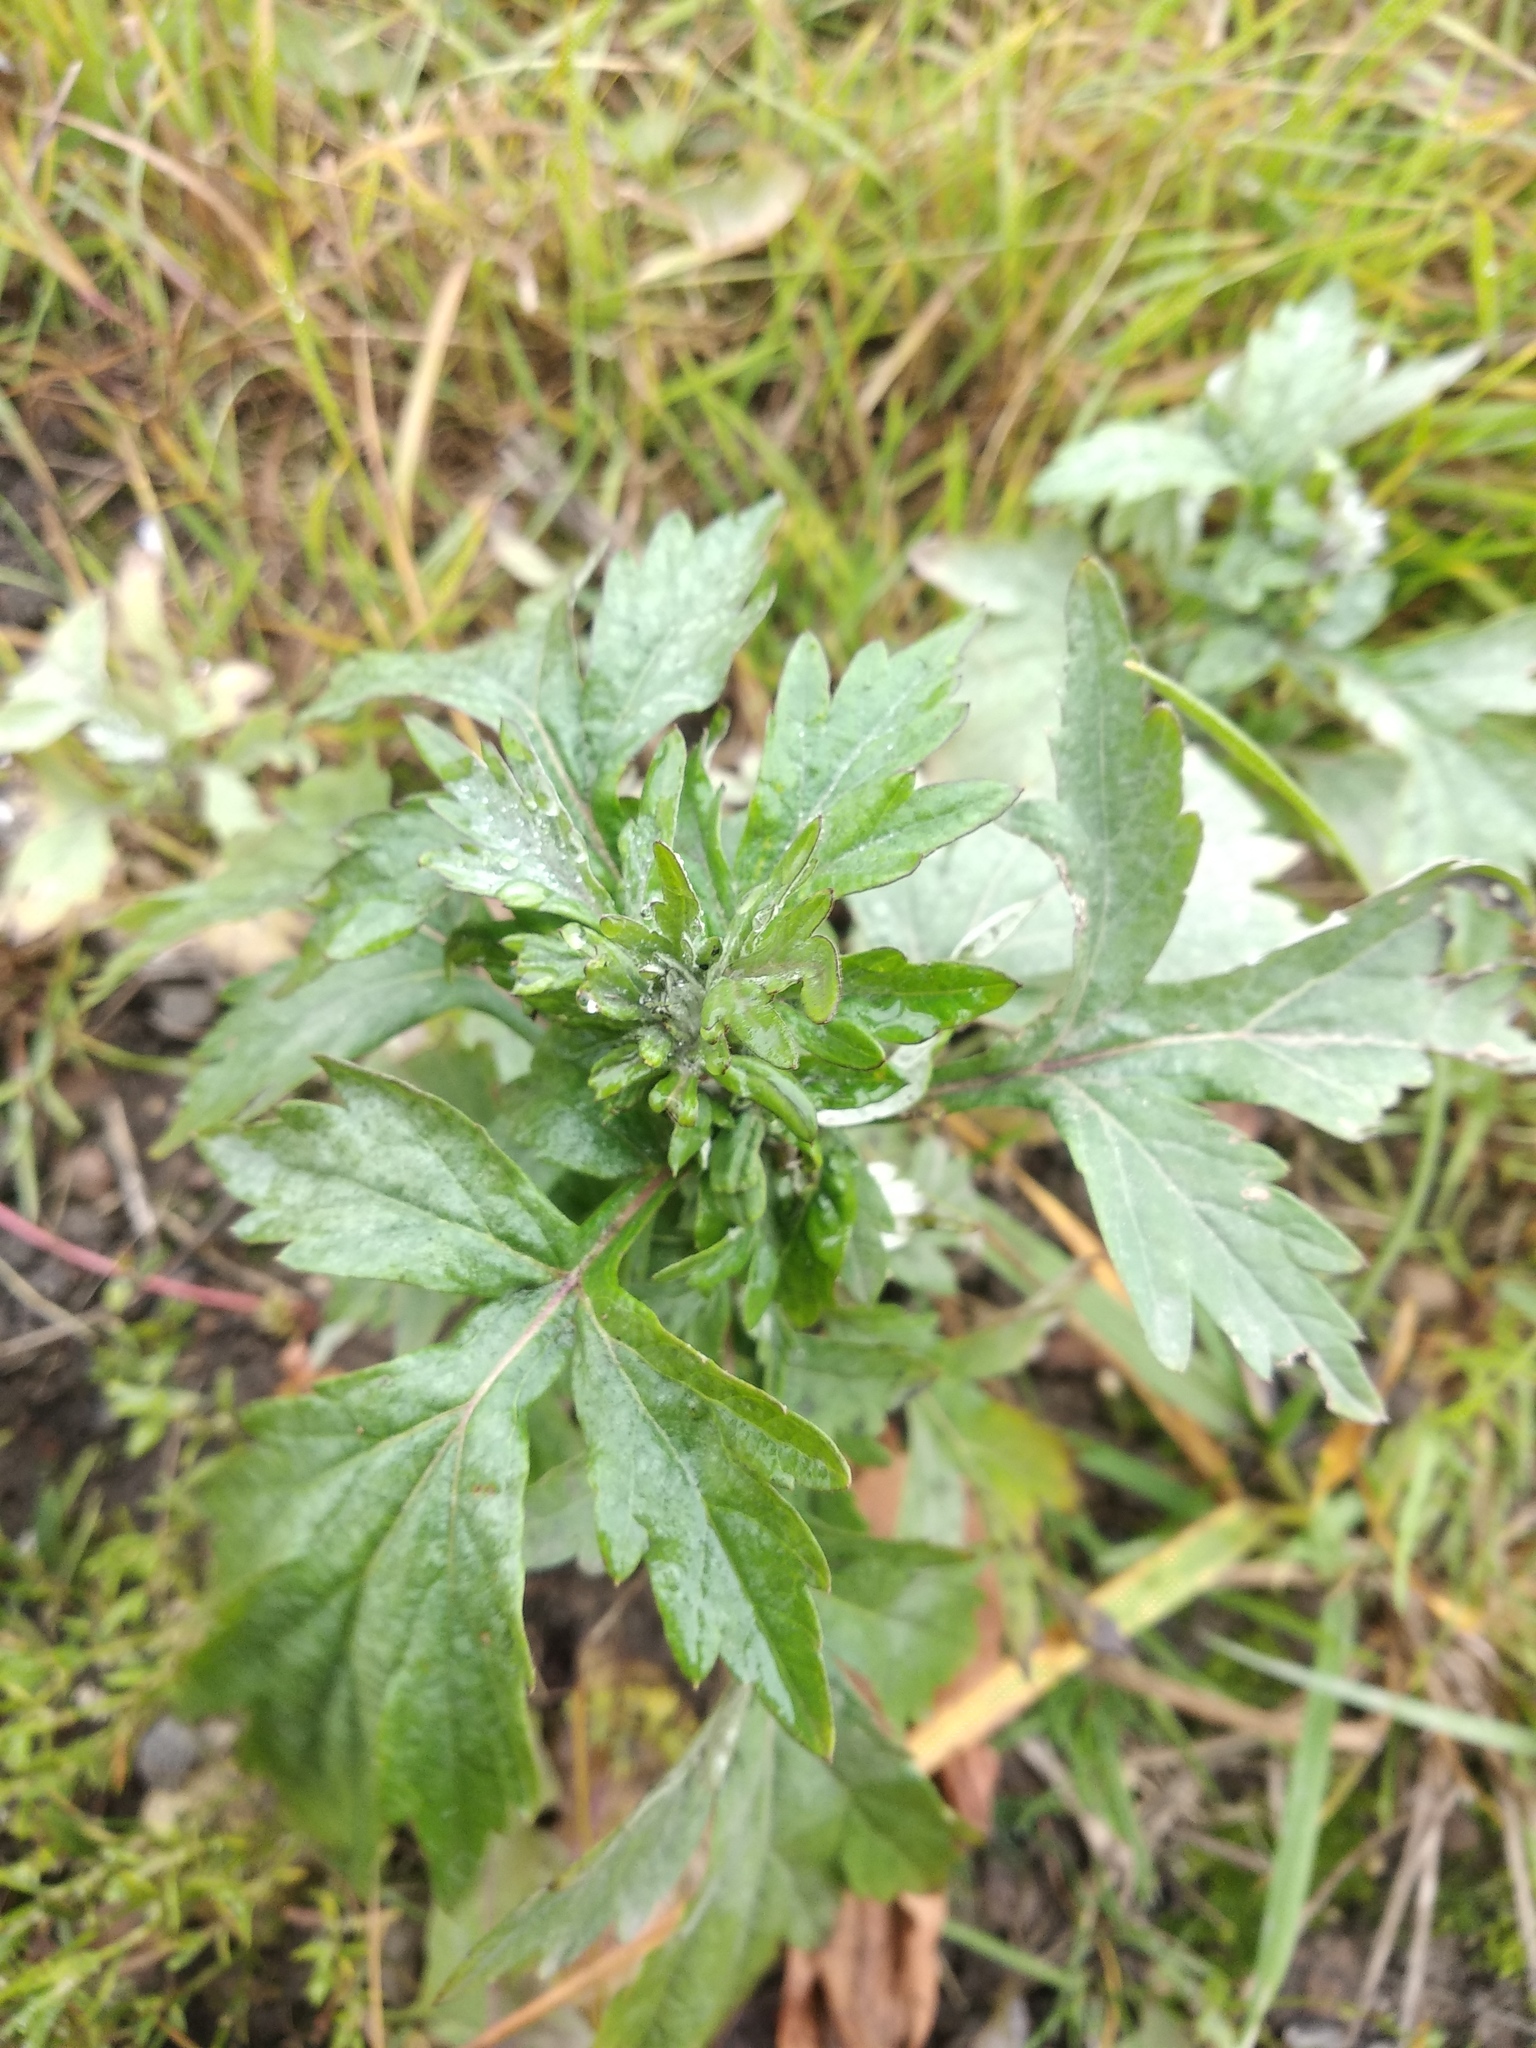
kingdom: Plantae
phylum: Tracheophyta
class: Magnoliopsida
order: Asterales
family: Asteraceae
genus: Artemisia
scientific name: Artemisia vulgaris
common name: Mugwort
